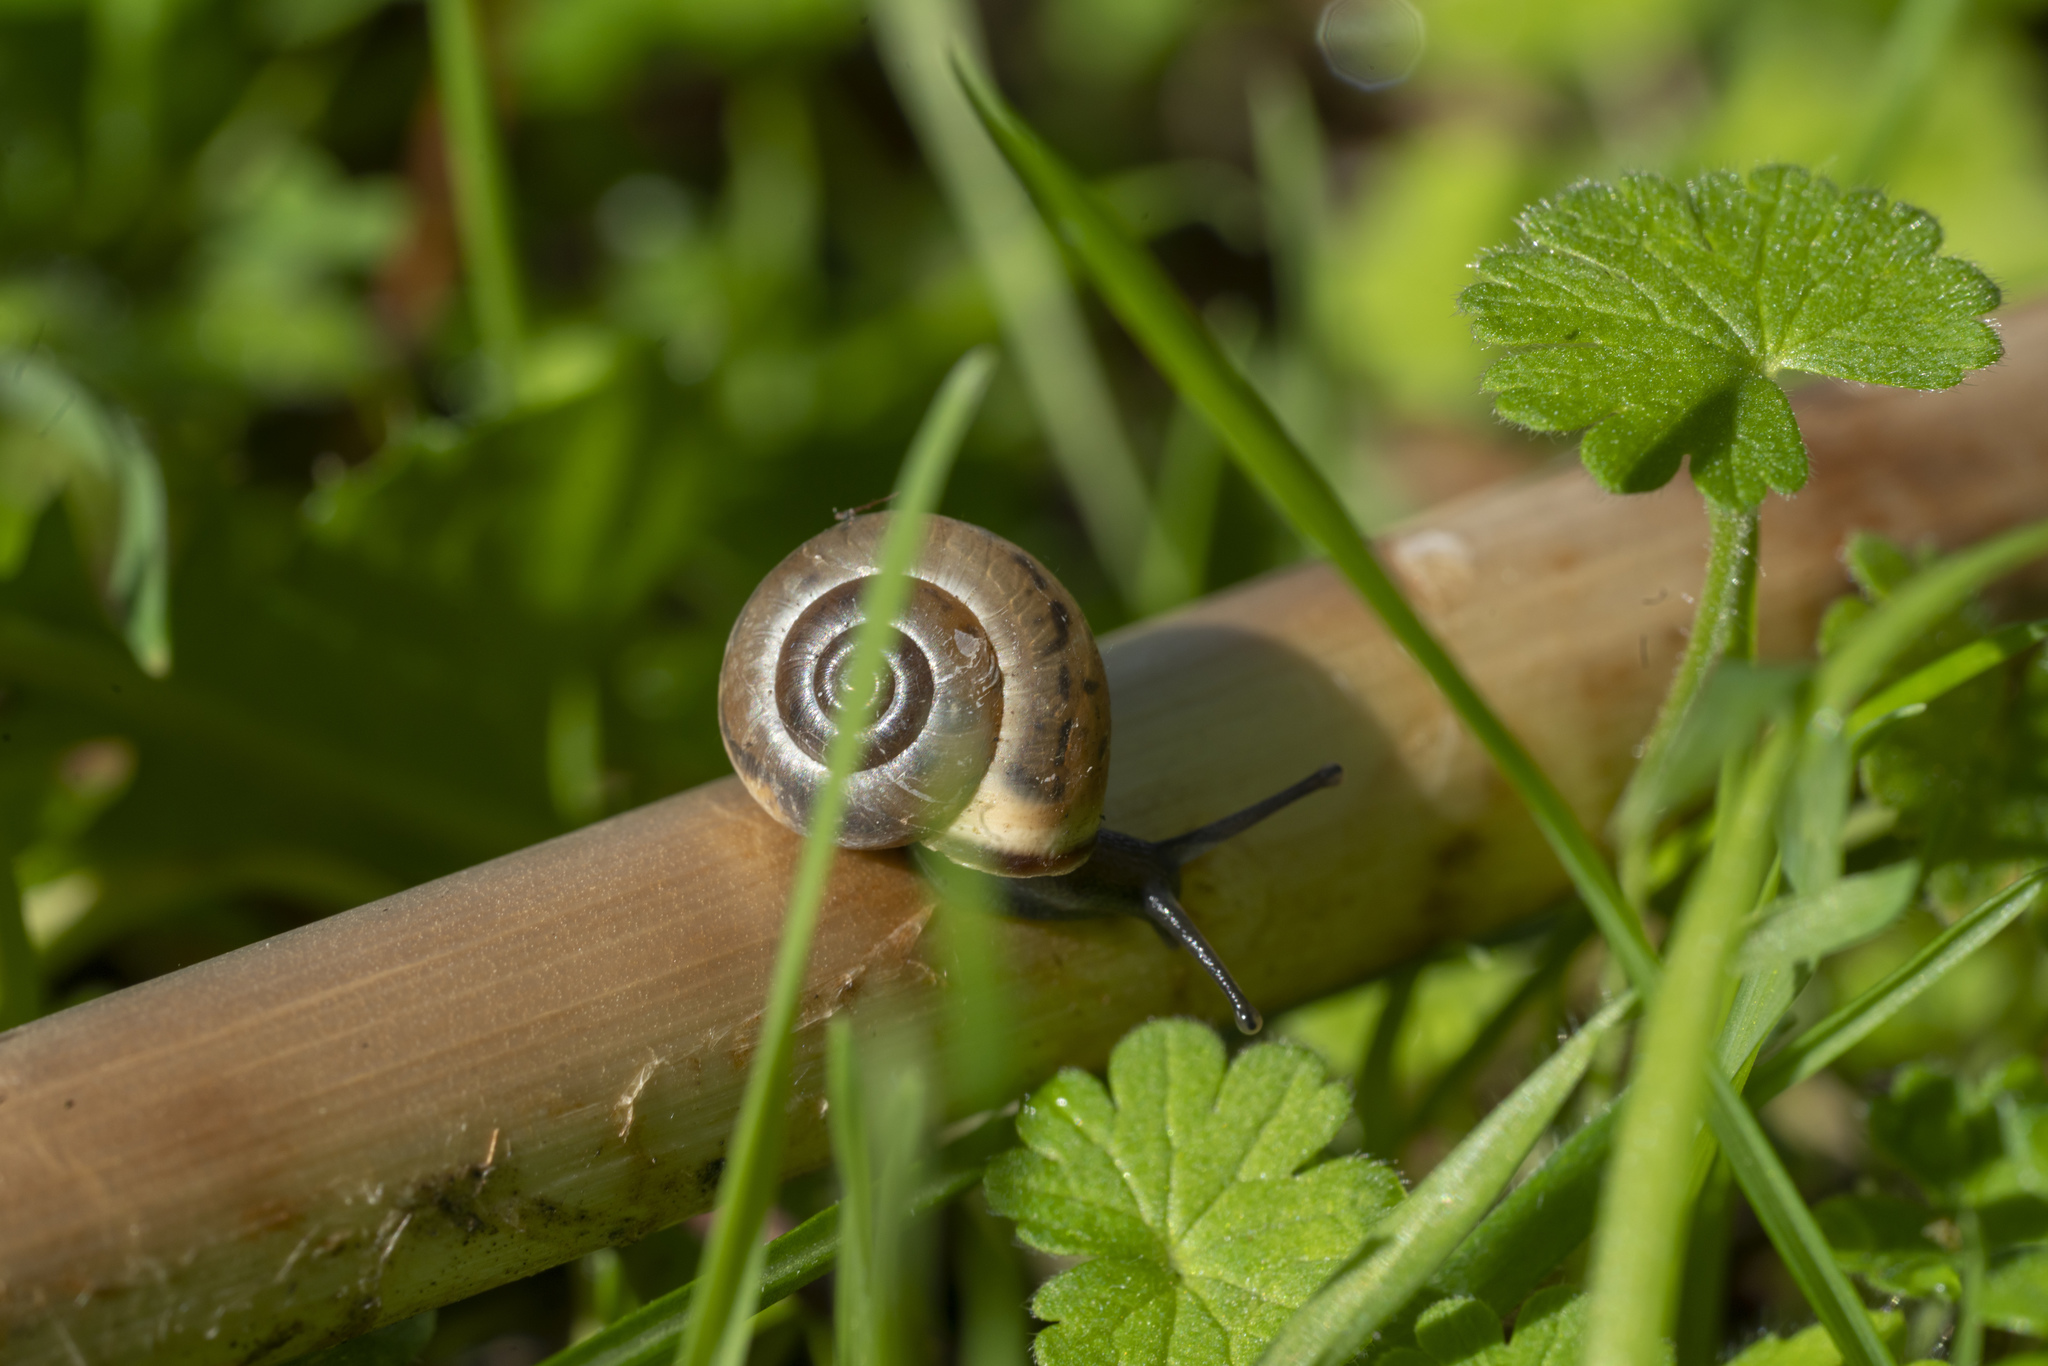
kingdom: Animalia
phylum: Mollusca
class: Gastropoda
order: Stylommatophora
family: Hygromiidae
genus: Monacha
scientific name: Monacha syriaca
